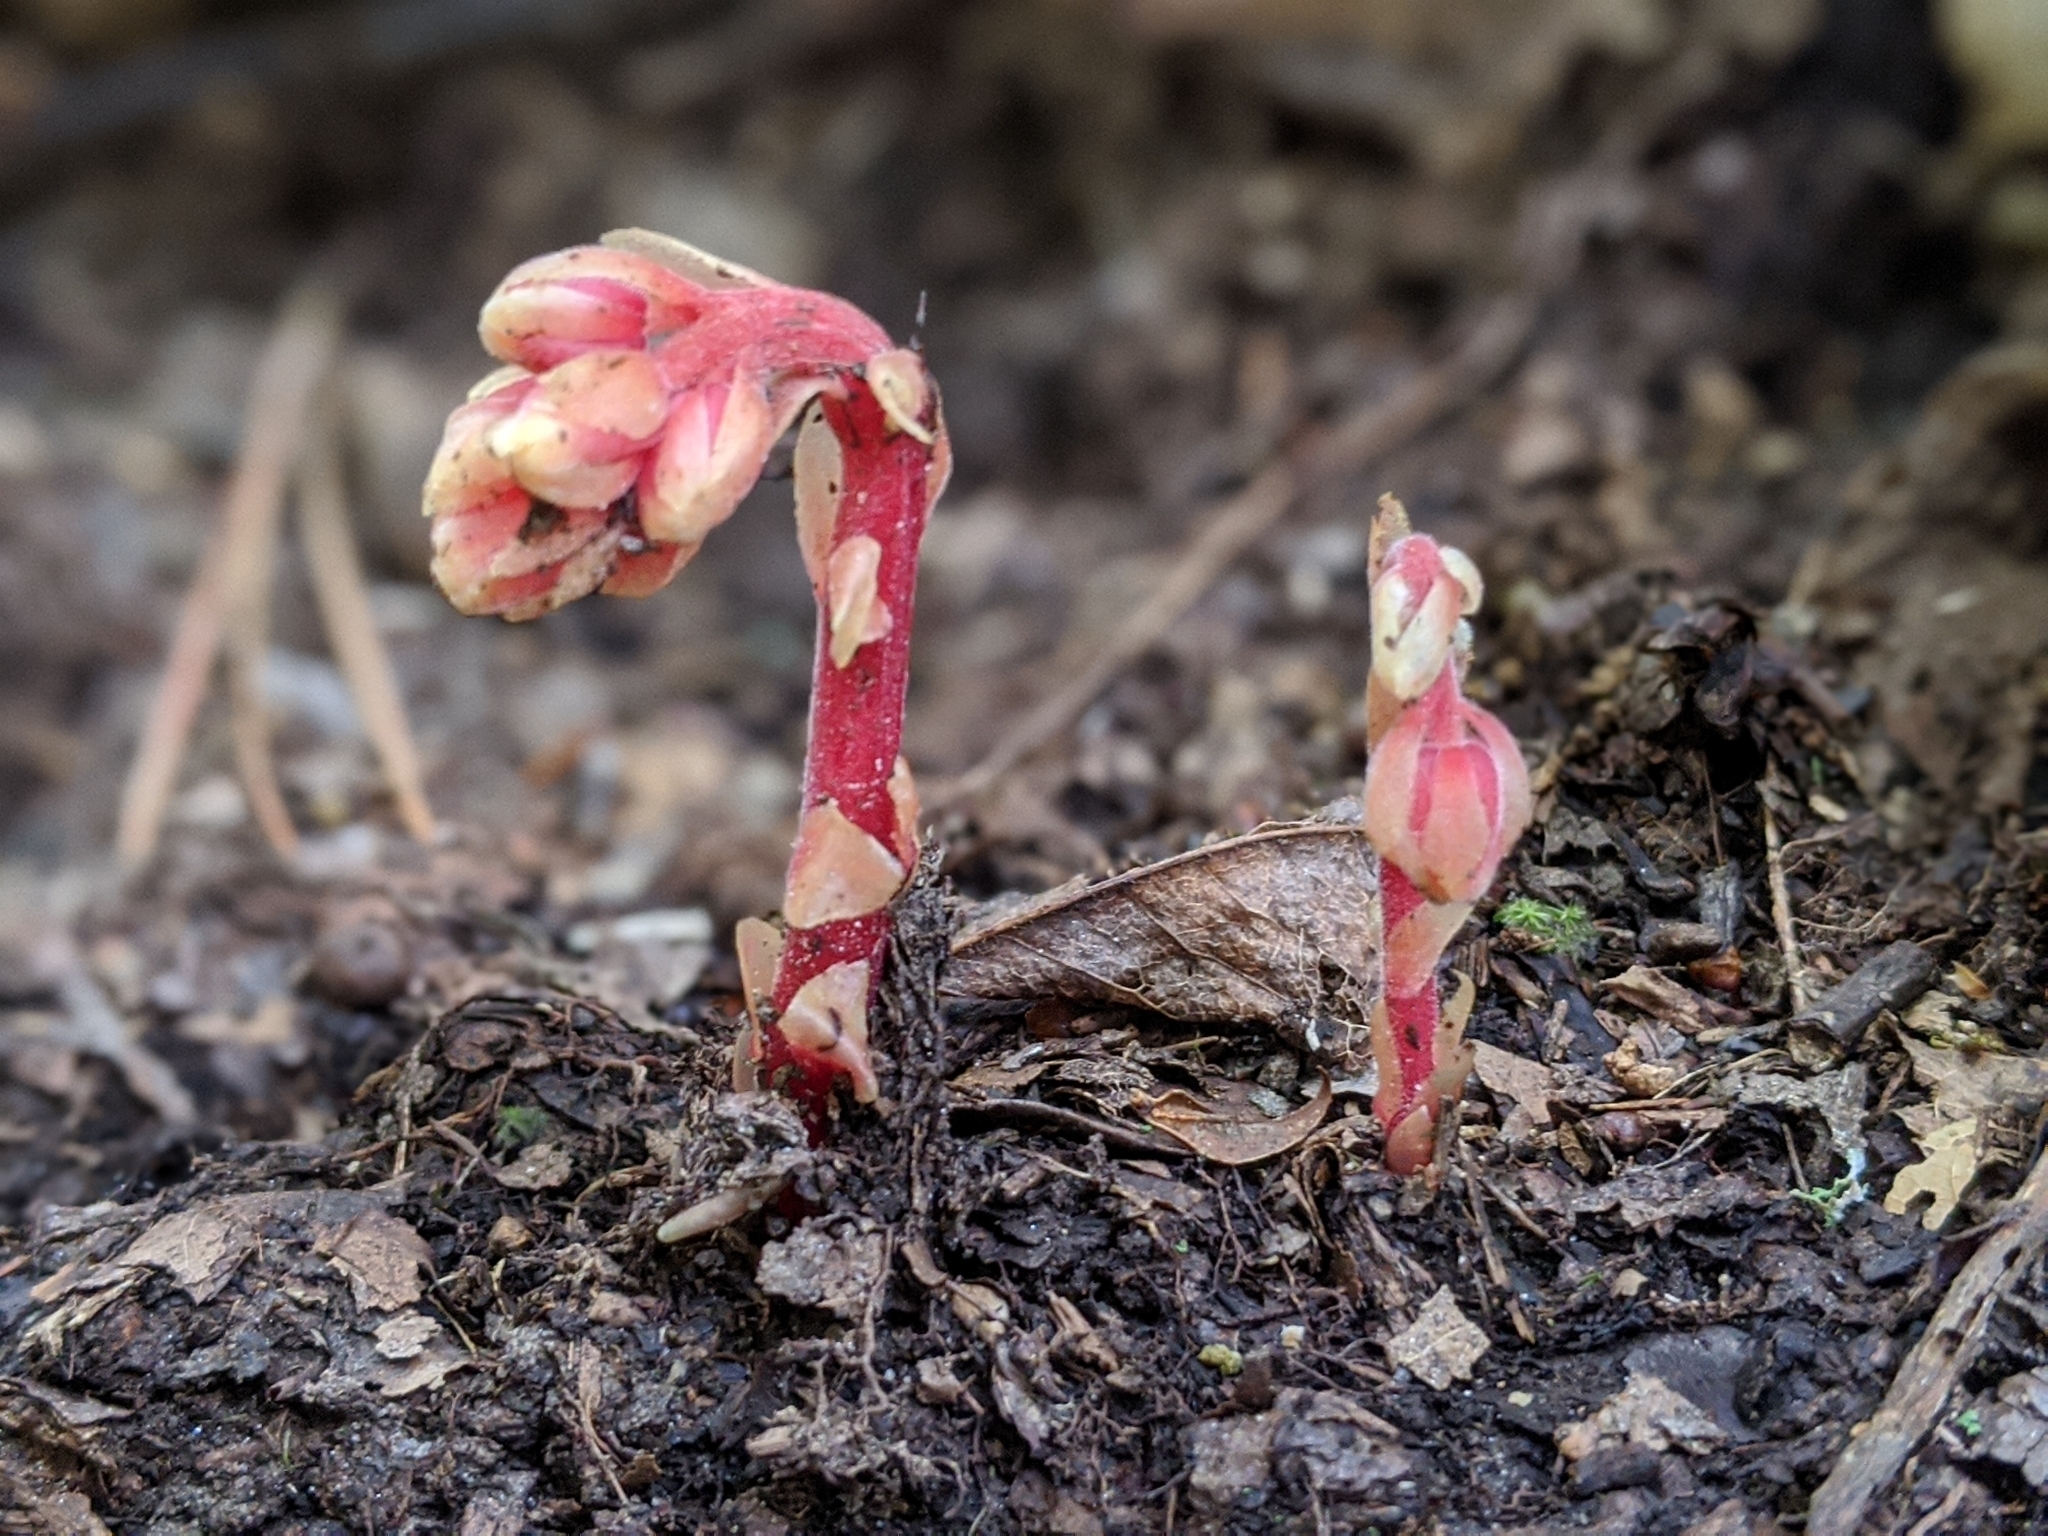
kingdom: Plantae
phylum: Tracheophyta
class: Magnoliopsida
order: Ericales
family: Ericaceae
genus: Hypopitys
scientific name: Hypopitys monotropa
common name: Yellow bird's-nest
